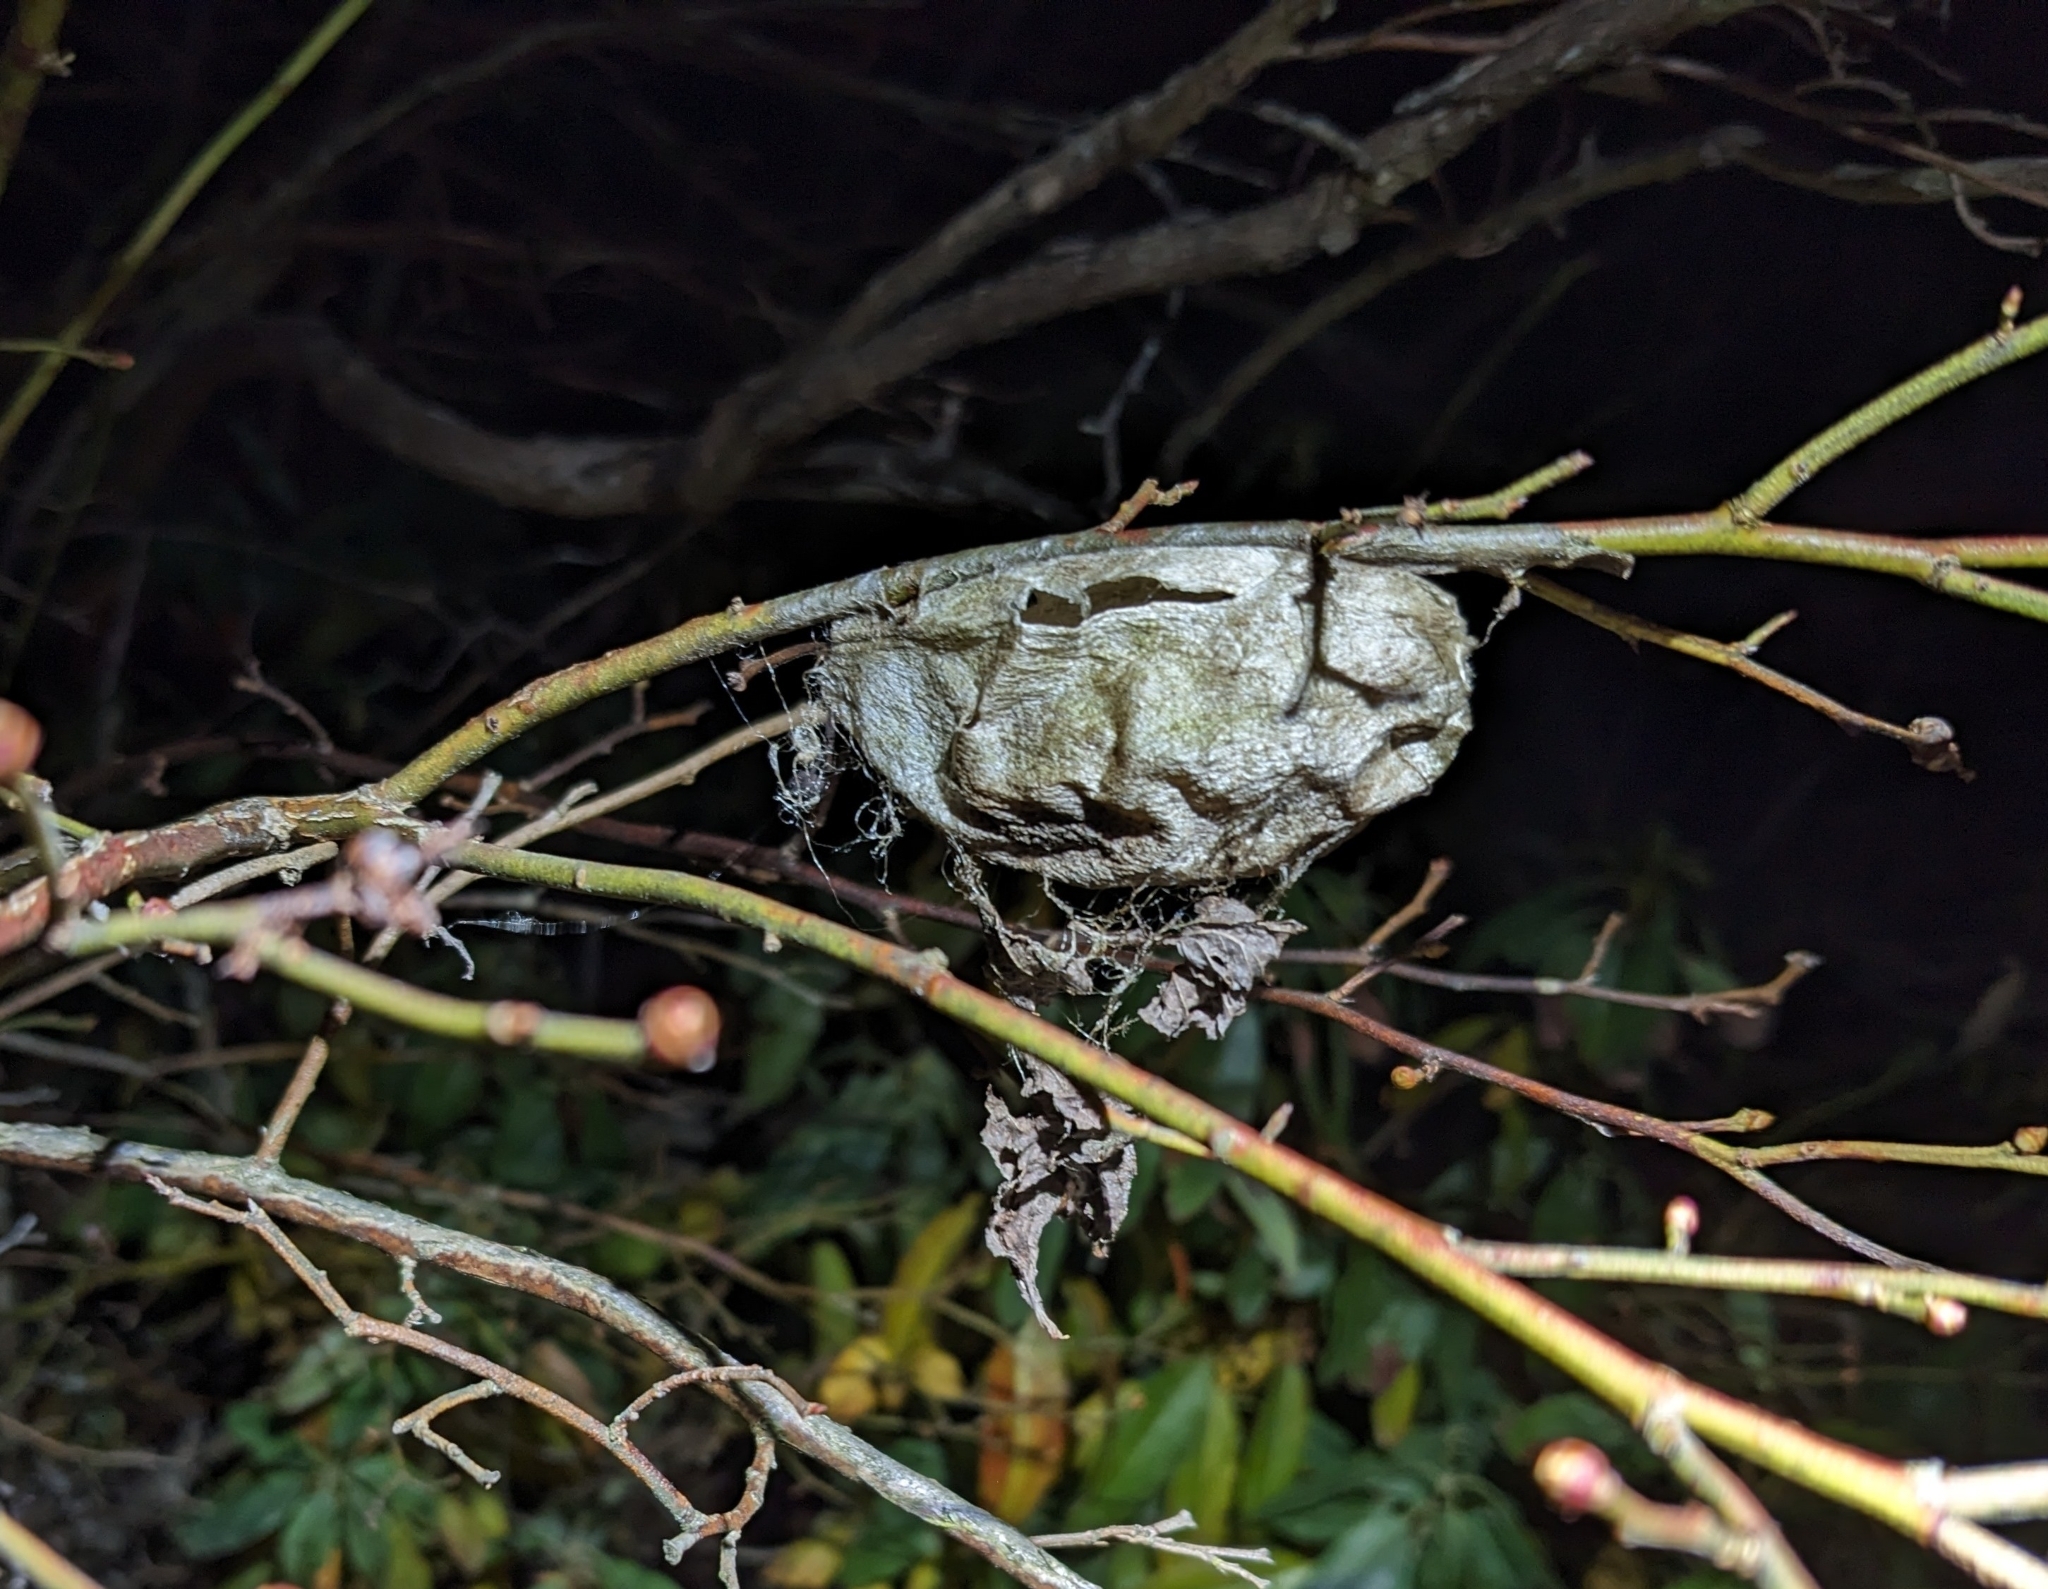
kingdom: Animalia
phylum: Arthropoda
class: Insecta
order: Lepidoptera
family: Saturniidae
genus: Hyalophora
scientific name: Hyalophora cecropia
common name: Cecropia silkmoth
